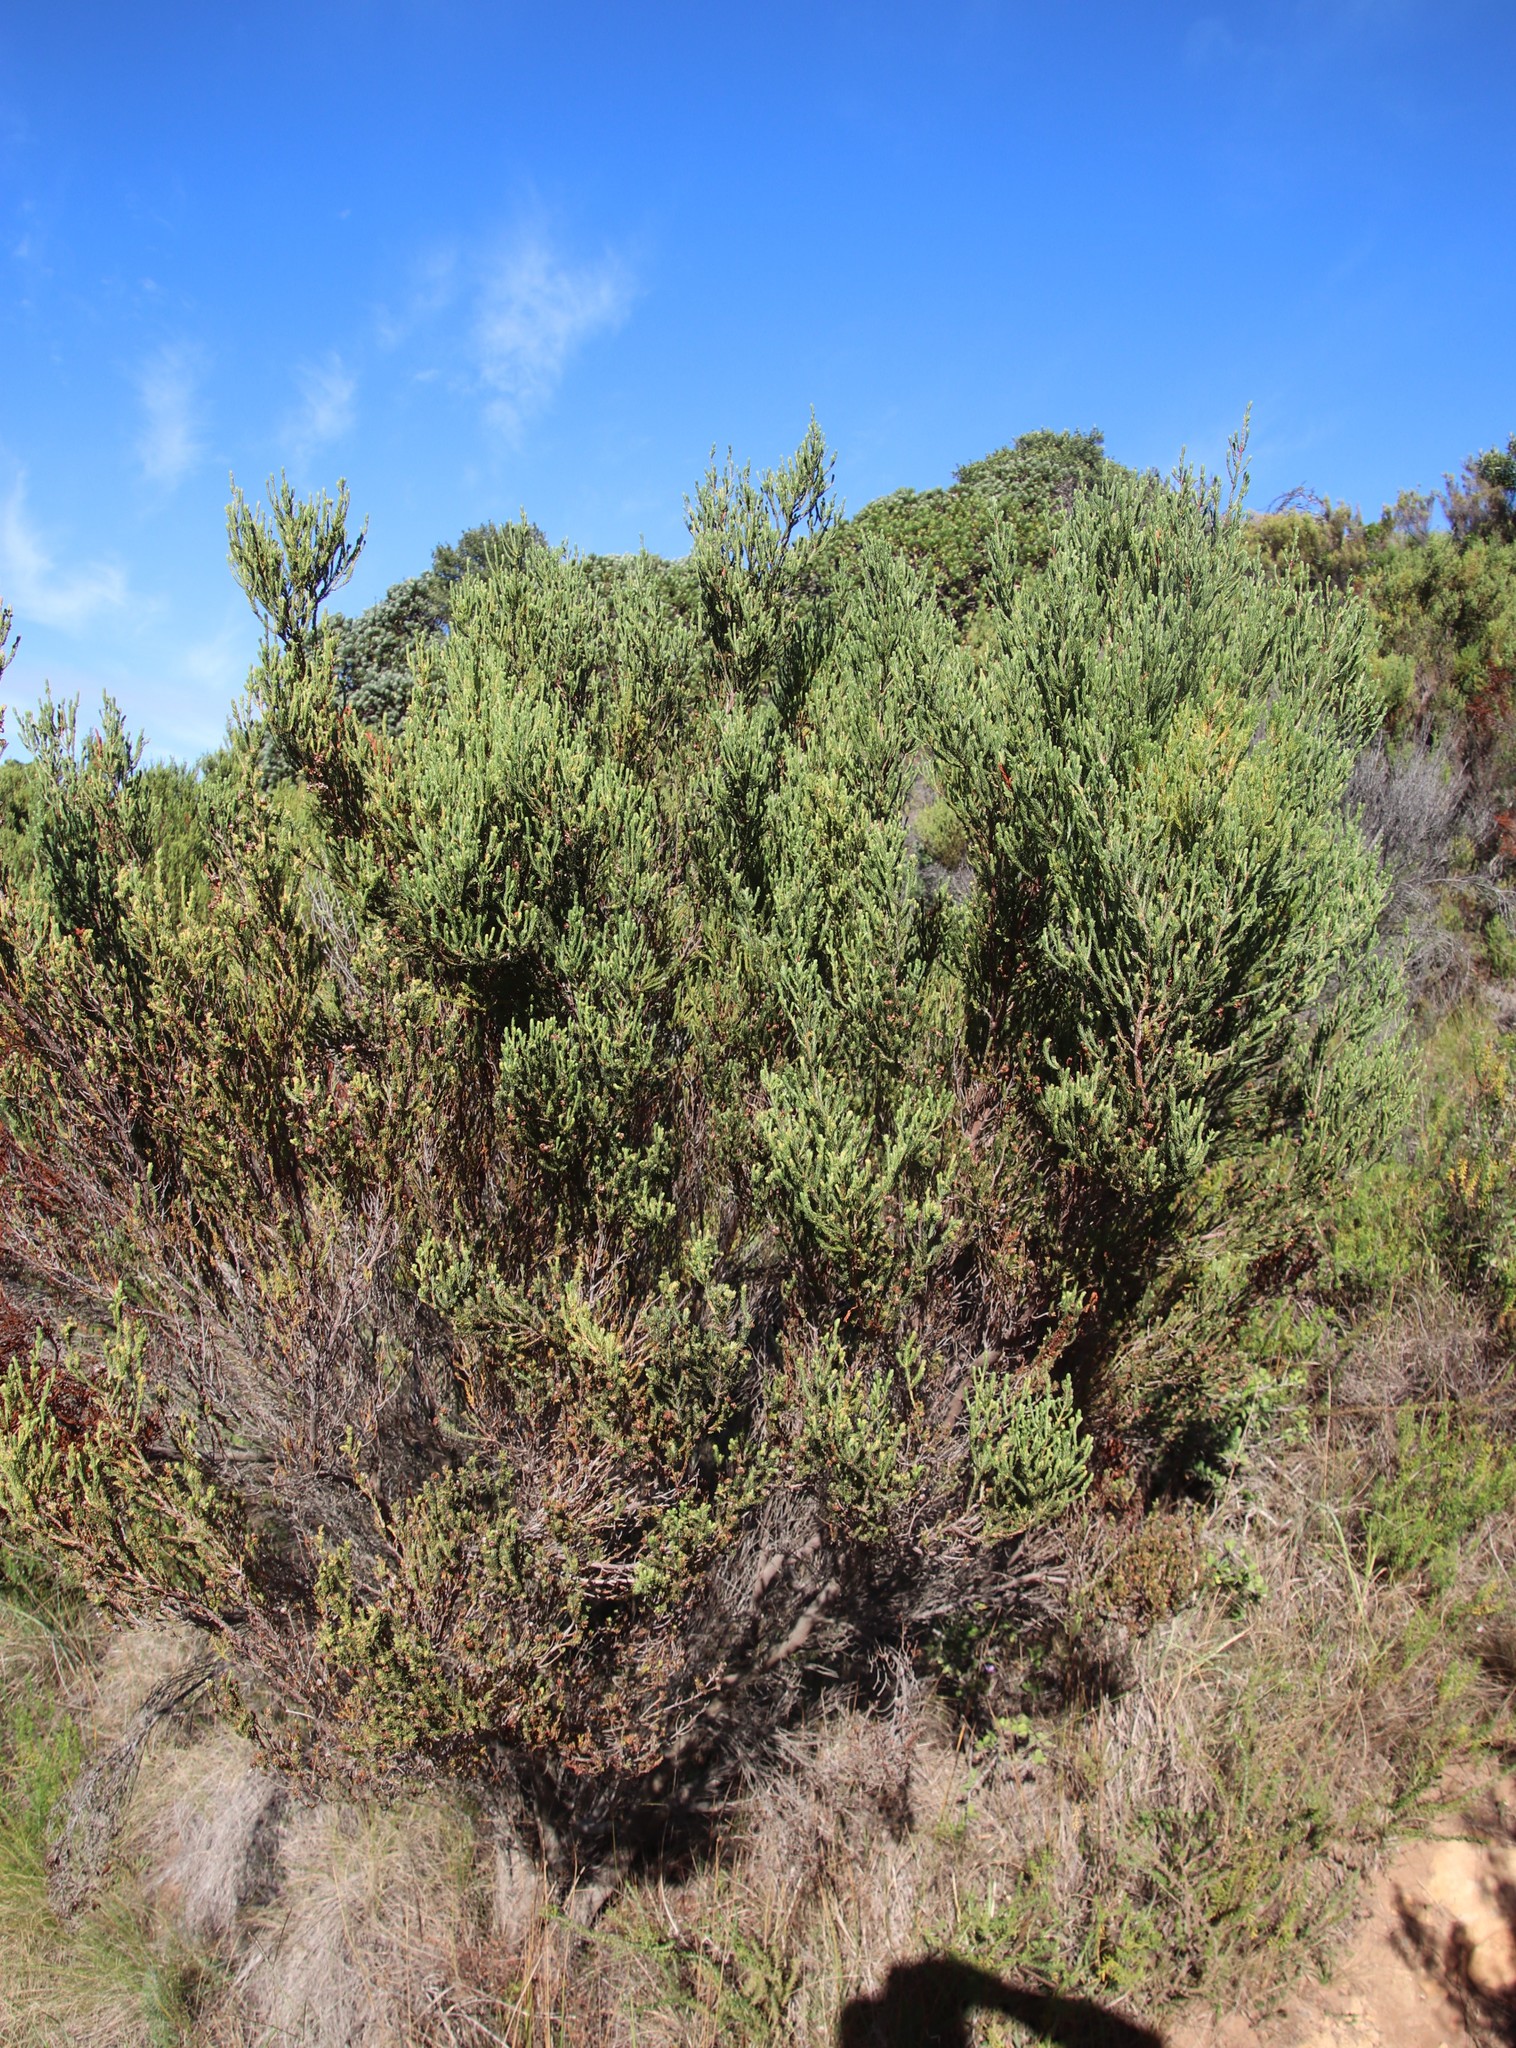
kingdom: Plantae
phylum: Tracheophyta
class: Magnoliopsida
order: Ericales
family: Ericaceae
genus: Erica
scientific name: Erica baccans
